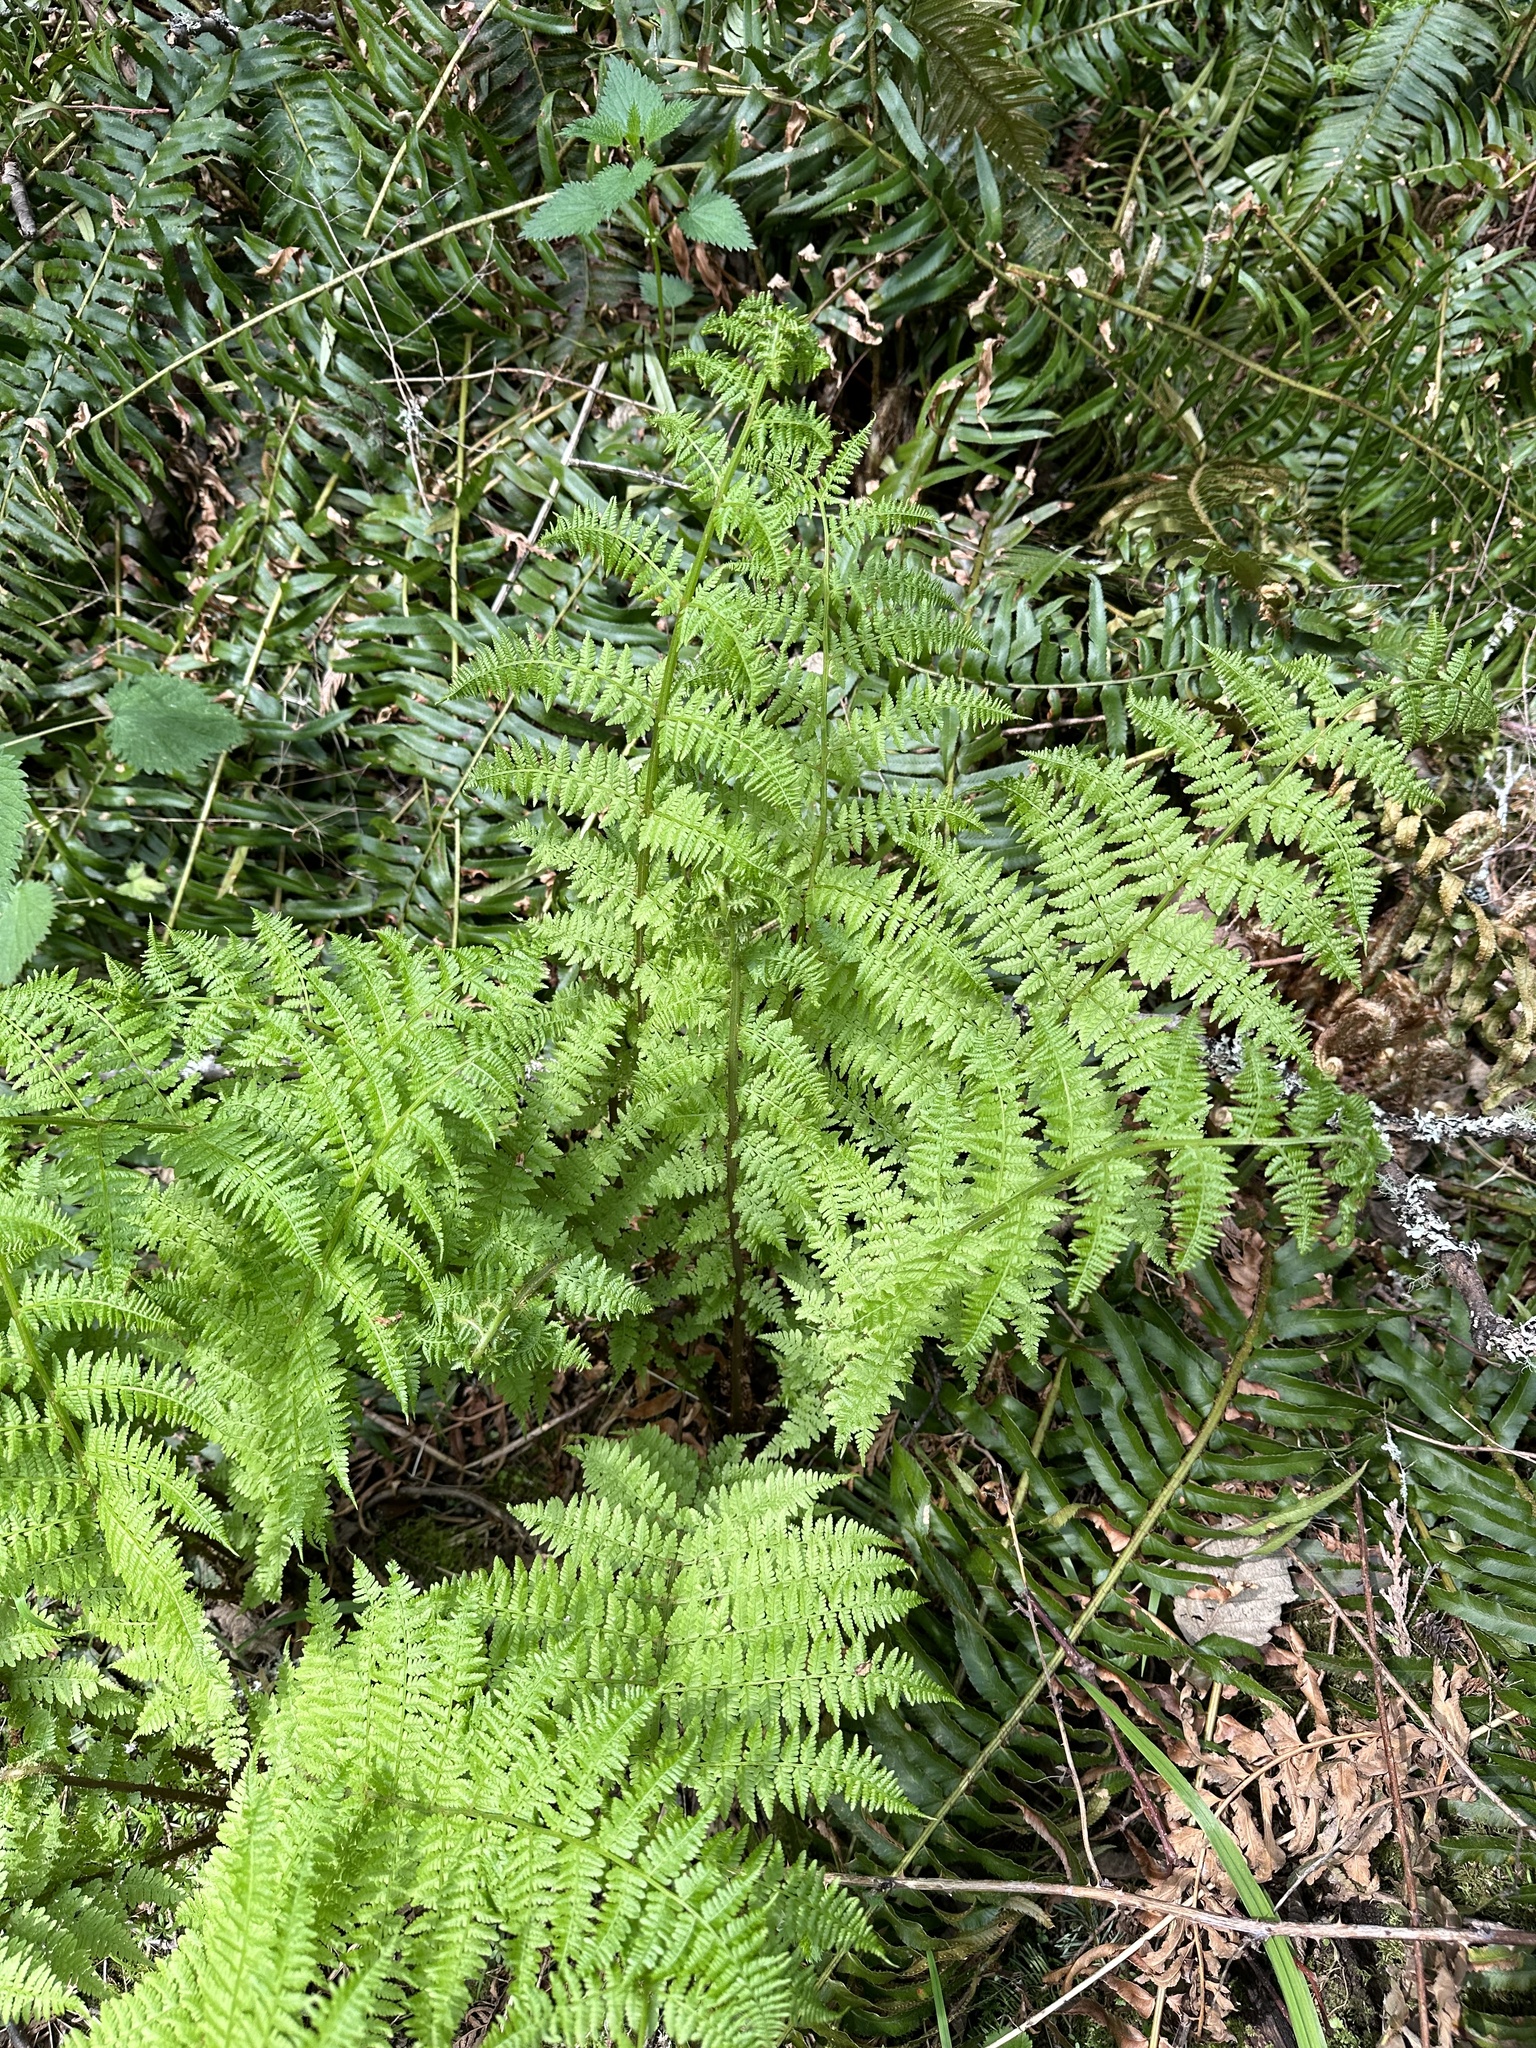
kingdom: Plantae
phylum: Tracheophyta
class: Polypodiopsida
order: Polypodiales
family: Athyriaceae
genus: Athyrium
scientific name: Athyrium filix-femina
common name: Lady fern
